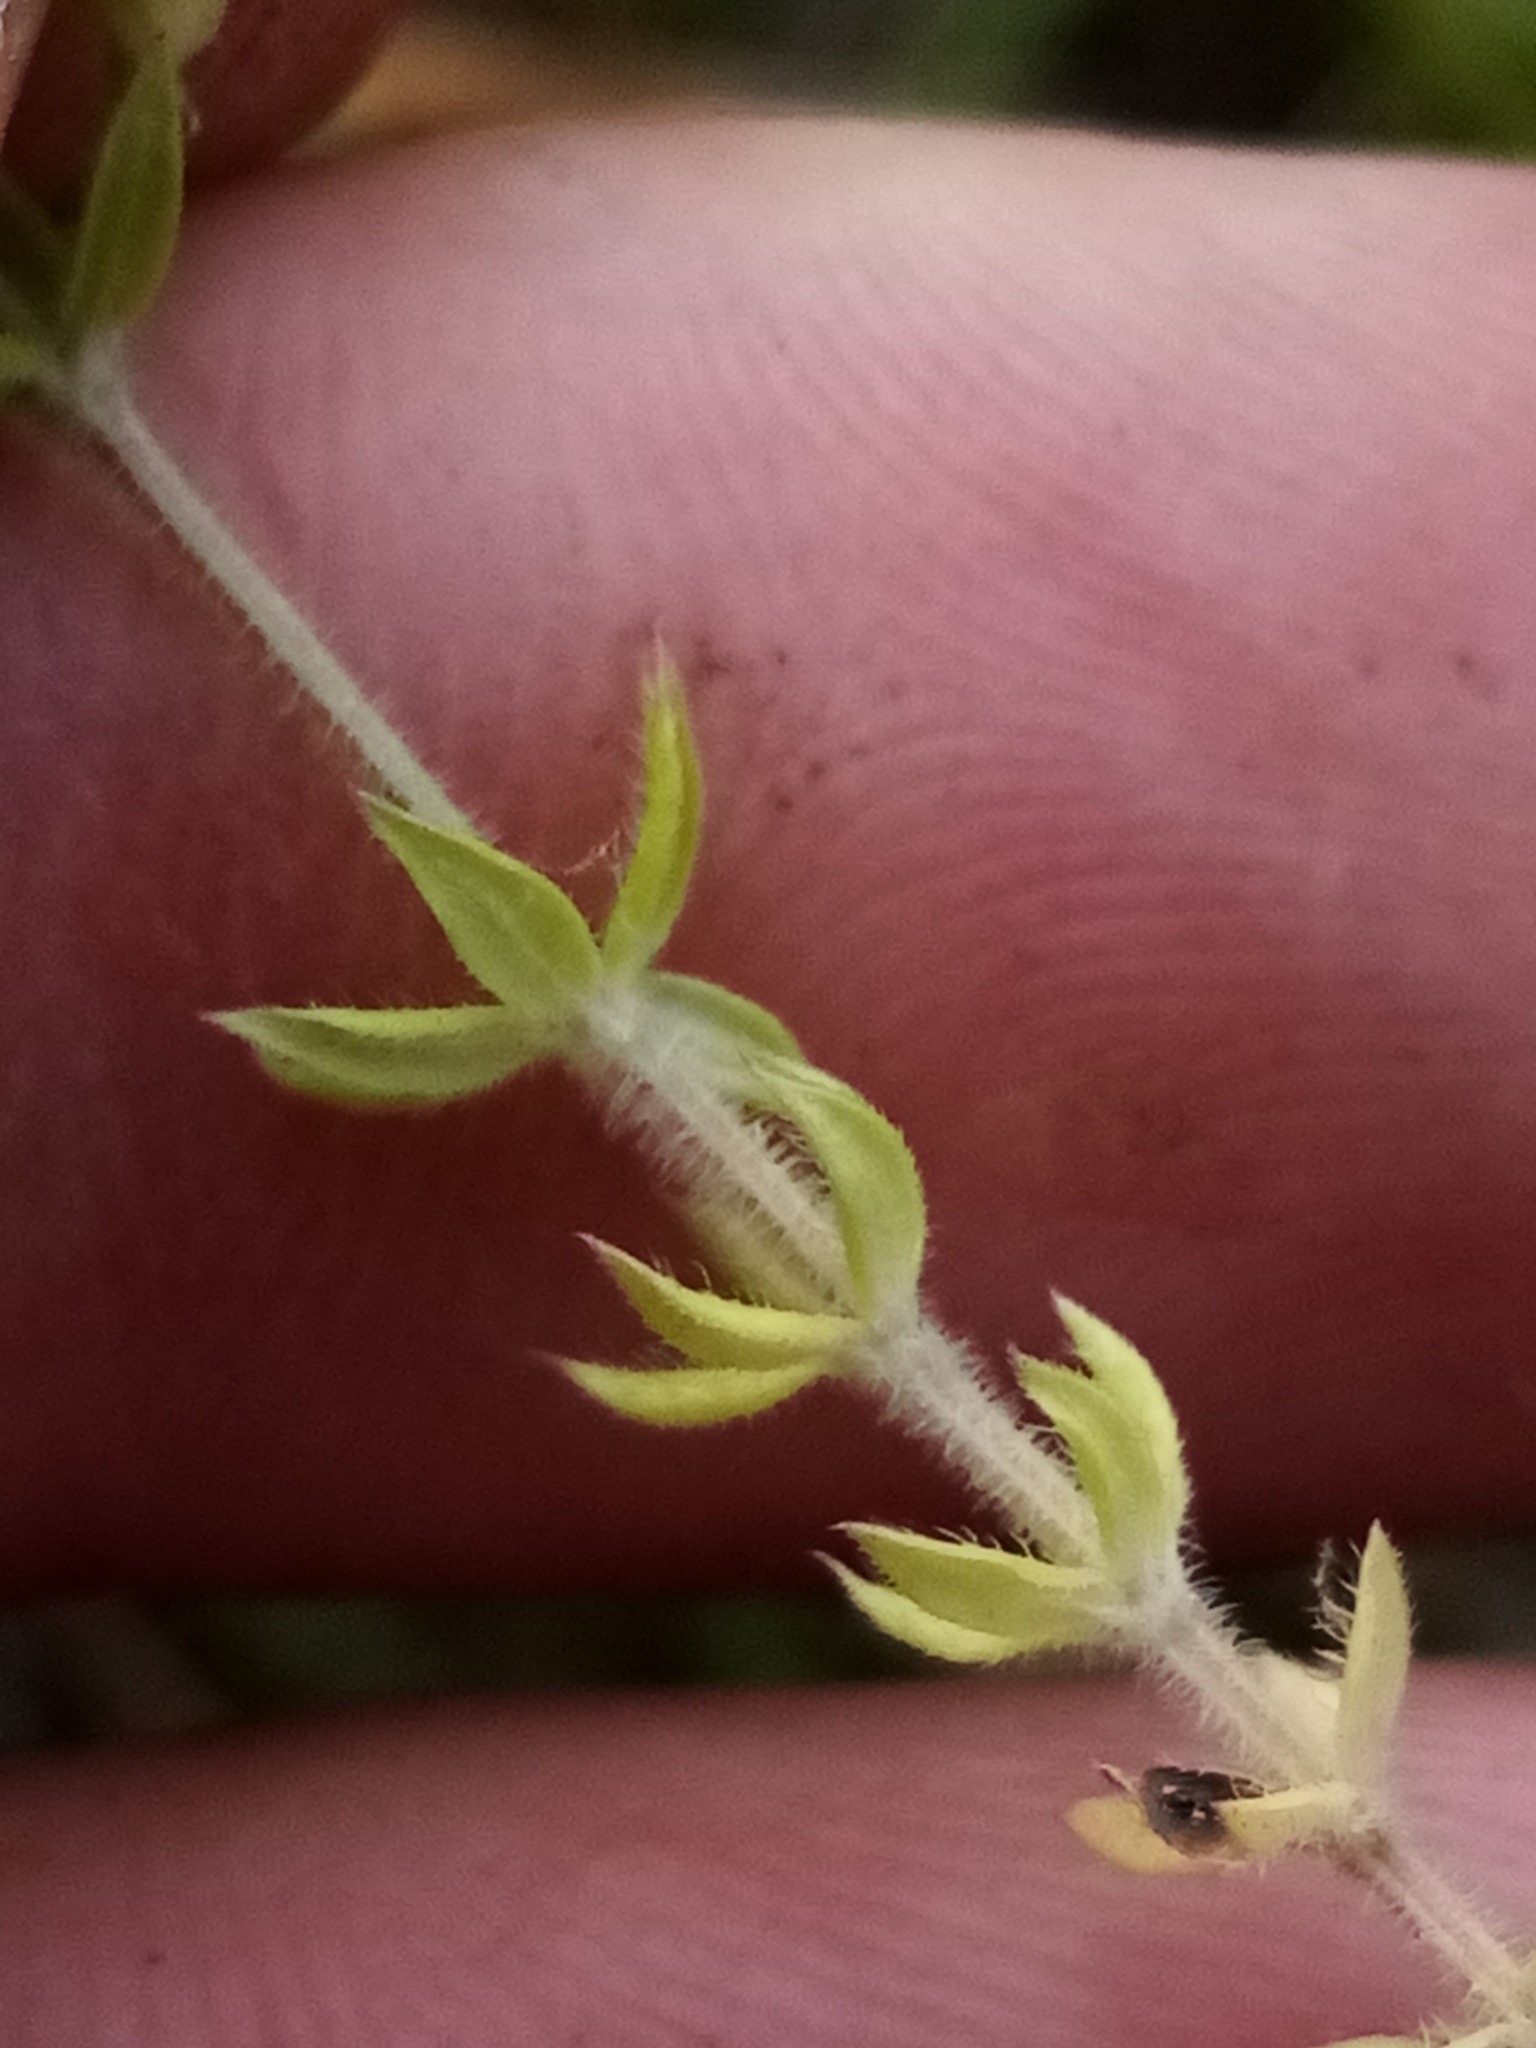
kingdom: Plantae
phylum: Tracheophyta
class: Magnoliopsida
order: Gentianales
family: Rubiaceae
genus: Sherardia
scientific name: Sherardia arvensis
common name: Field madder
